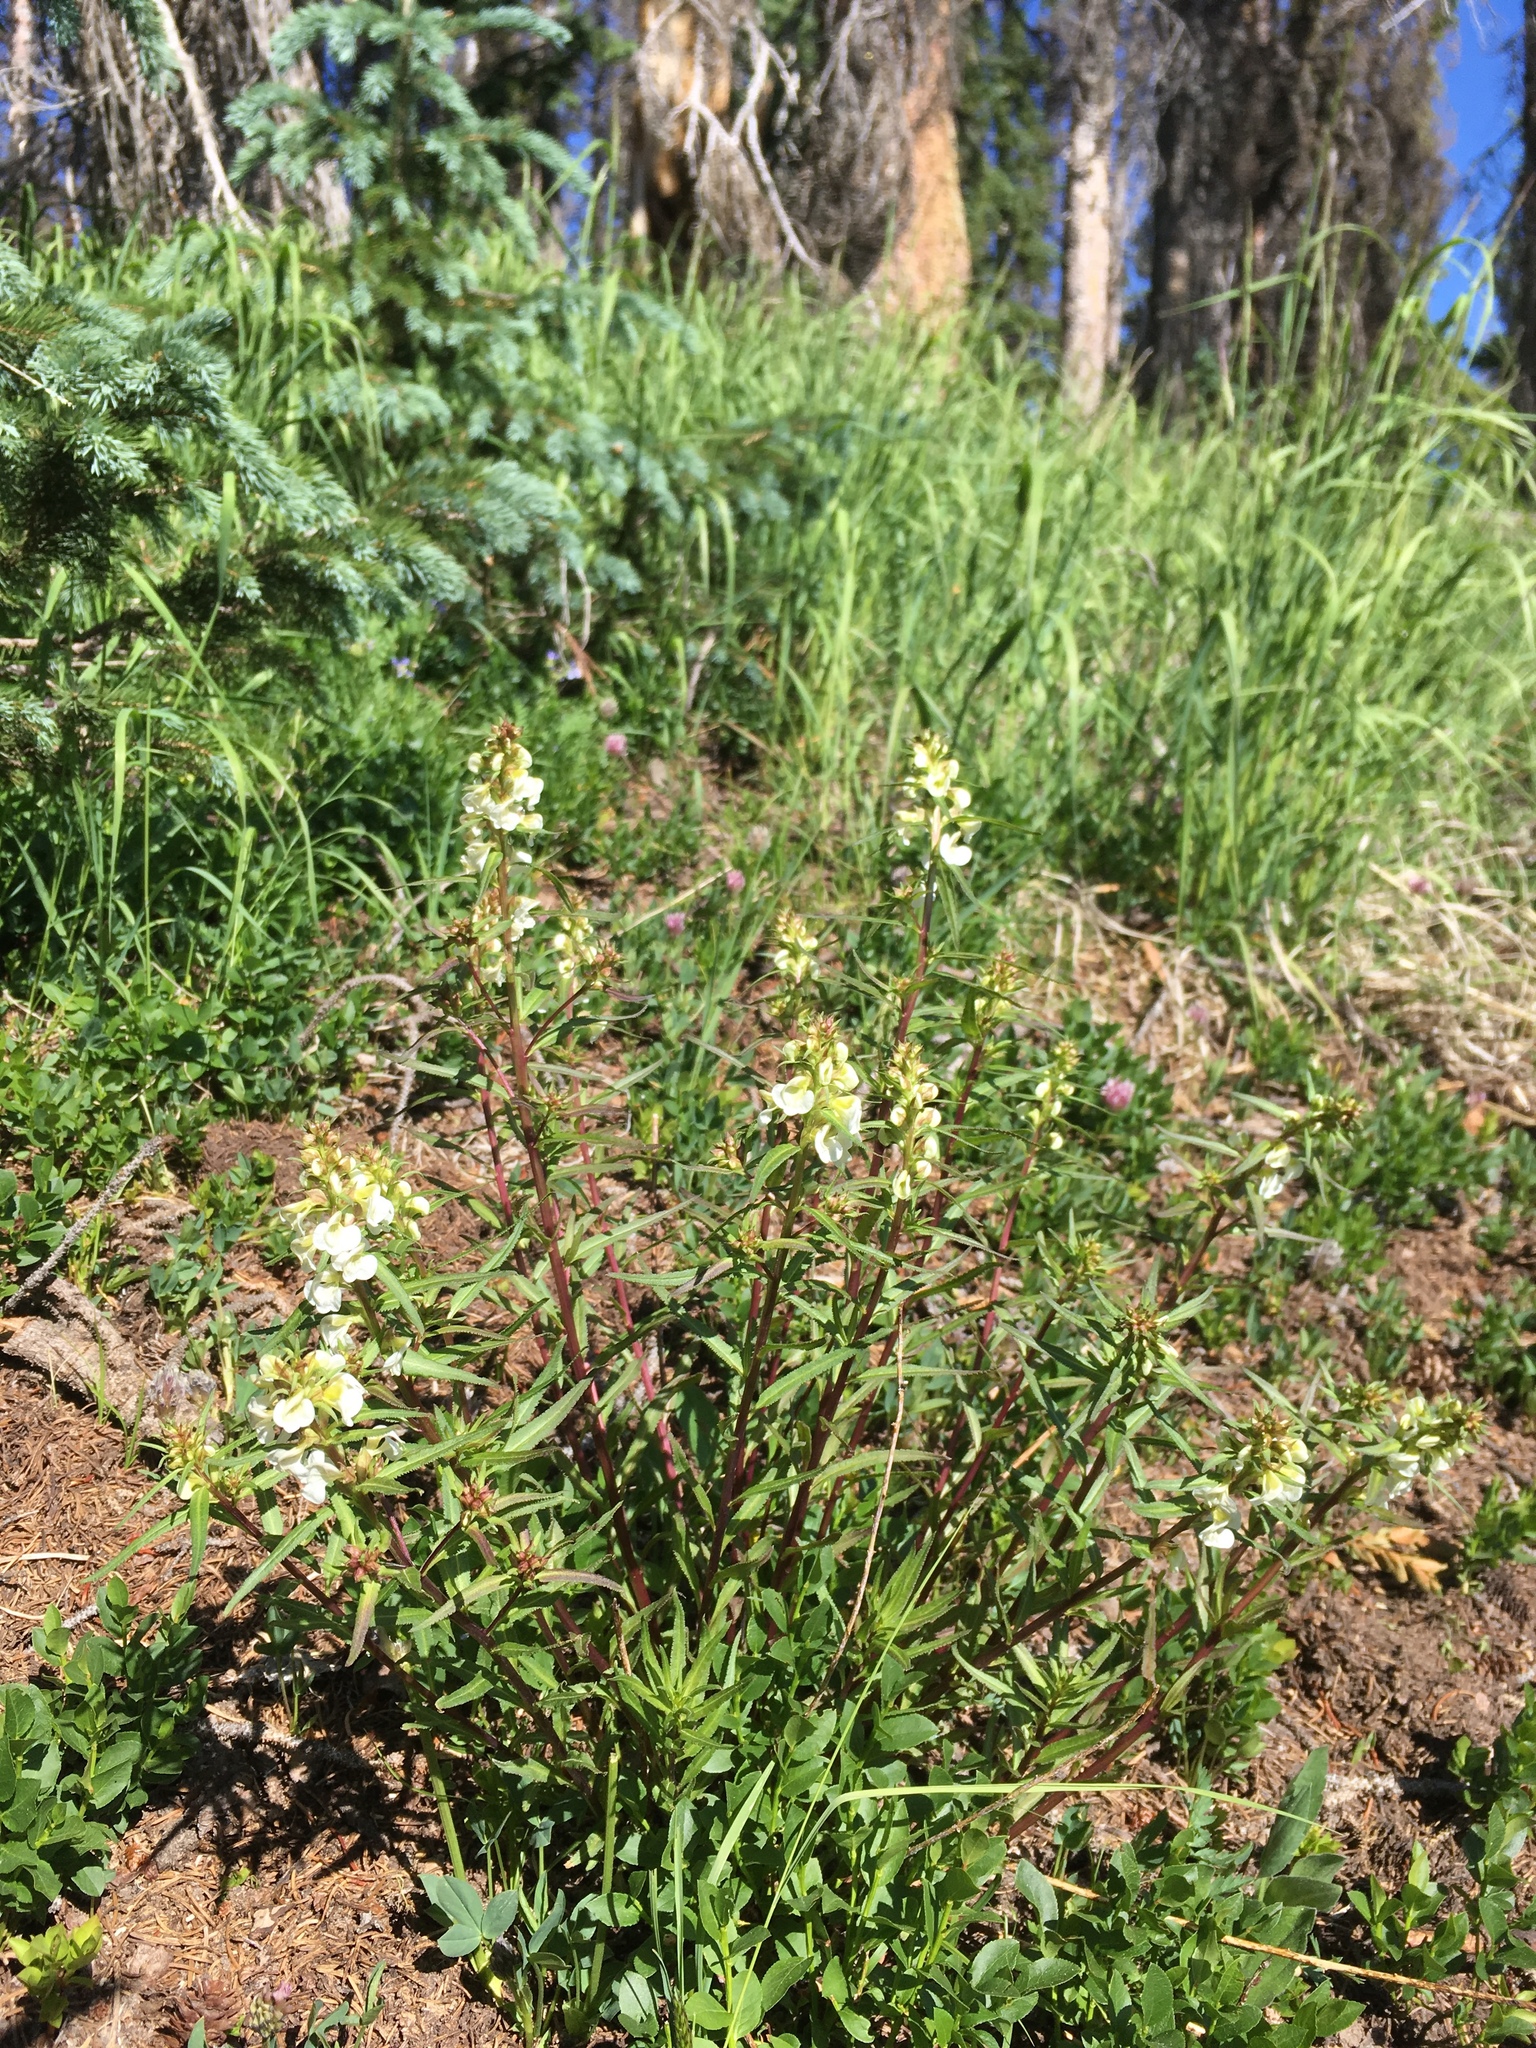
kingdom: Plantae
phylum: Tracheophyta
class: Magnoliopsida
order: Lamiales
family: Orobanchaceae
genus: Pedicularis
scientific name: Pedicularis racemosa
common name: Leafy lousewort
